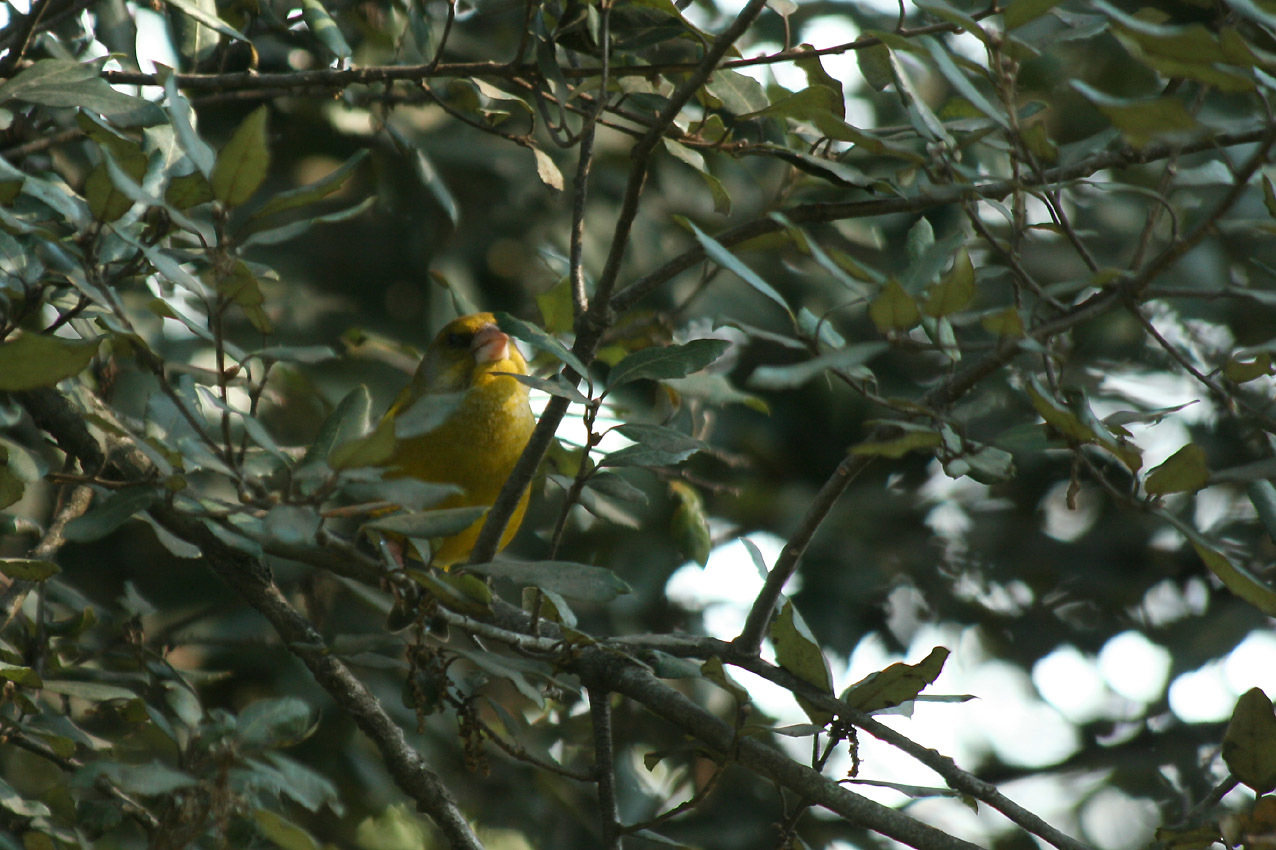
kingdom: Plantae
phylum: Tracheophyta
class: Liliopsida
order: Poales
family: Poaceae
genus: Chloris
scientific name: Chloris chloris
